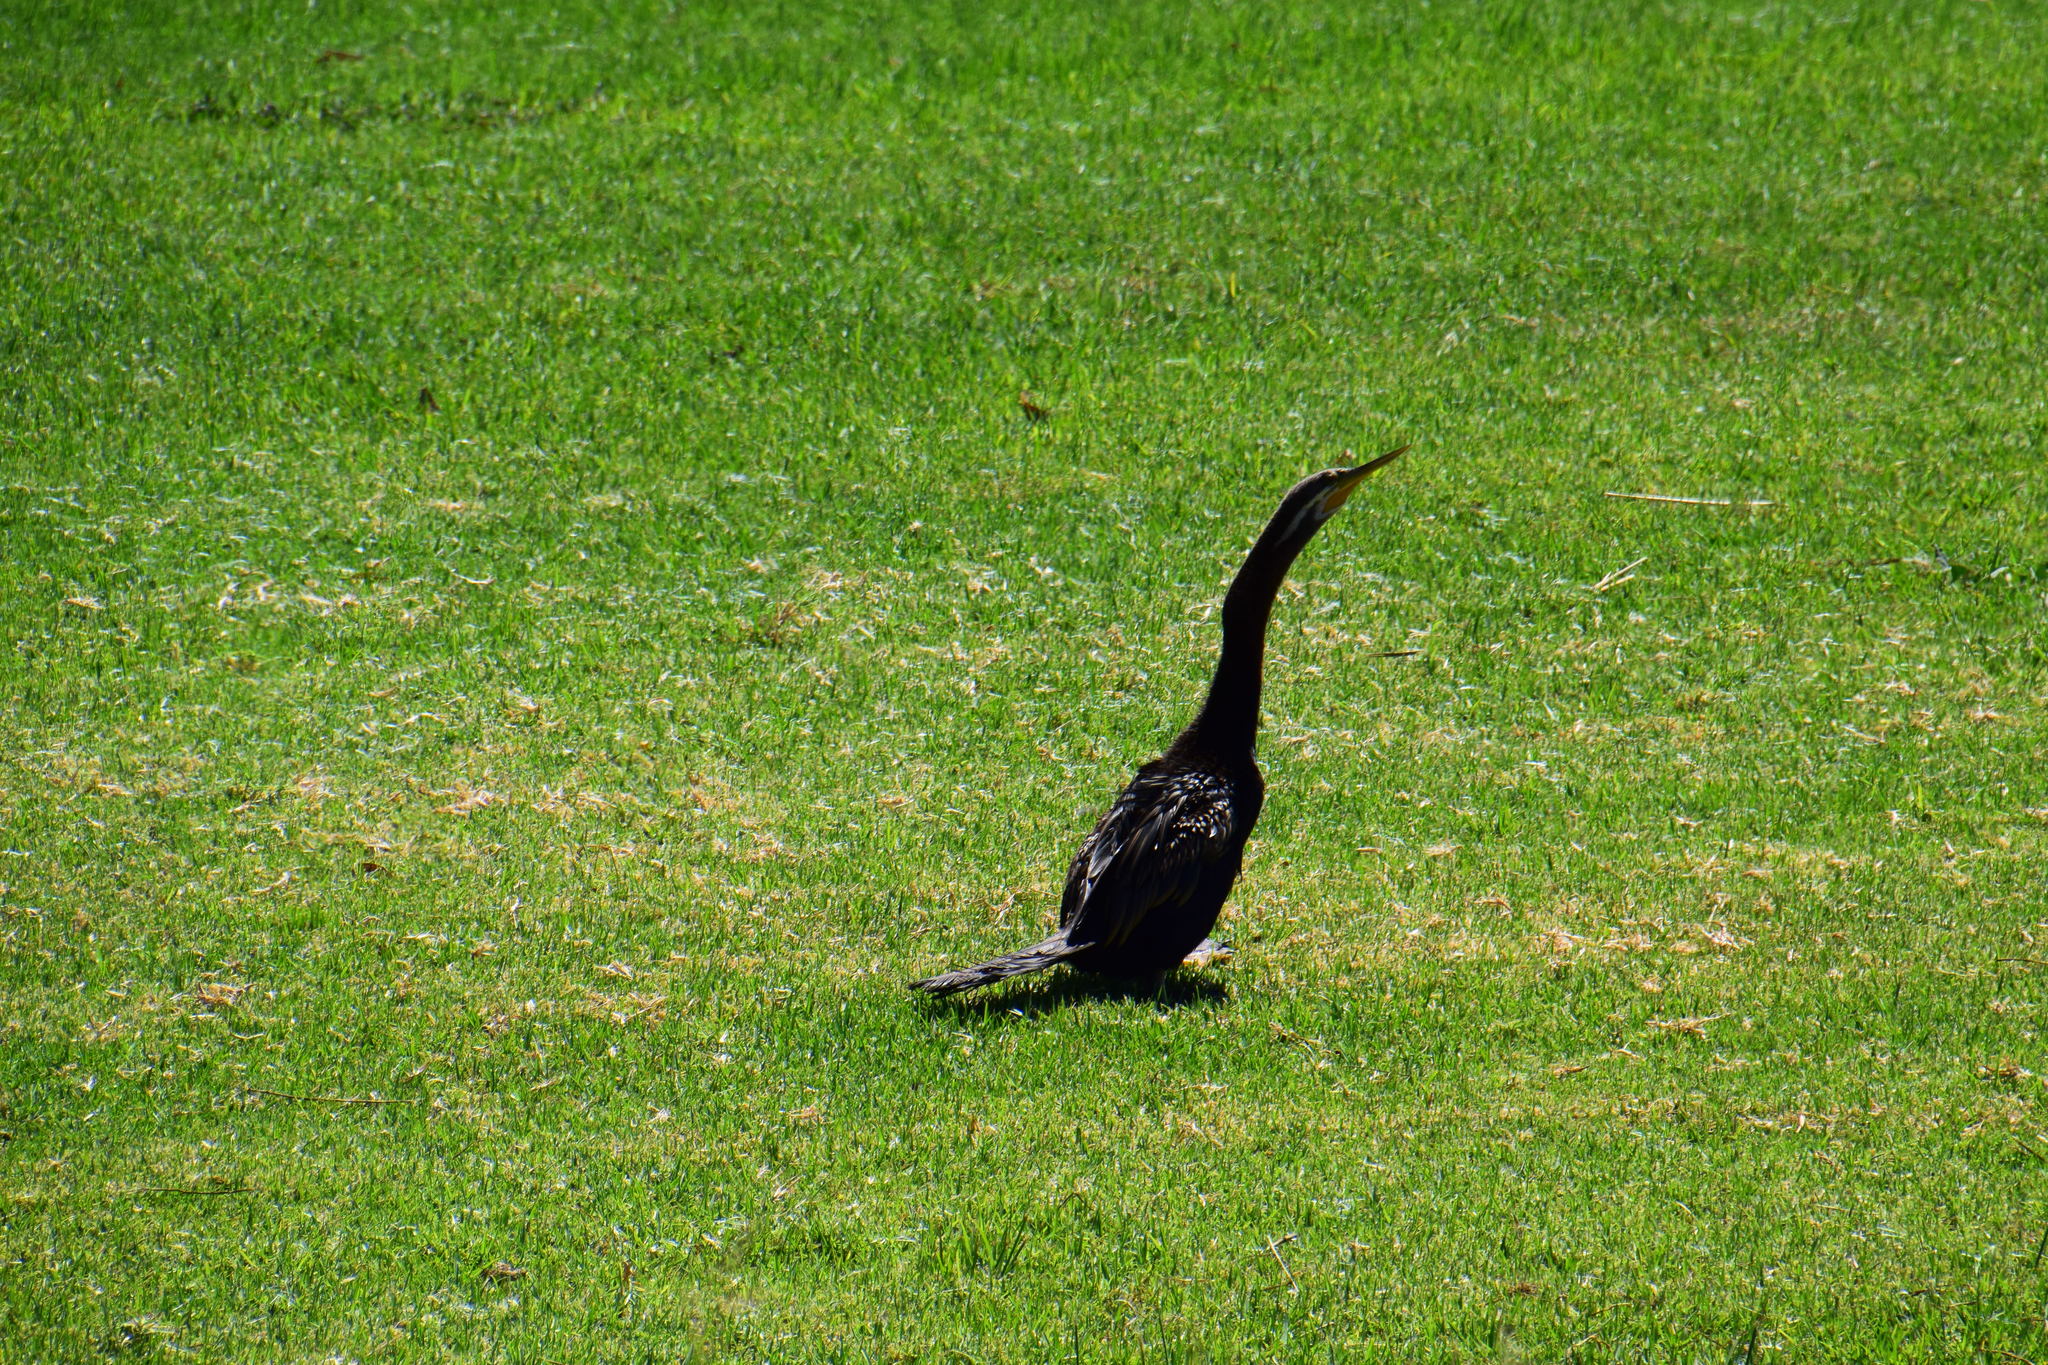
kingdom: Animalia
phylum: Chordata
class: Aves
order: Suliformes
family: Anhingidae
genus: Anhinga
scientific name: Anhinga novaehollandiae
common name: Australasian darter
